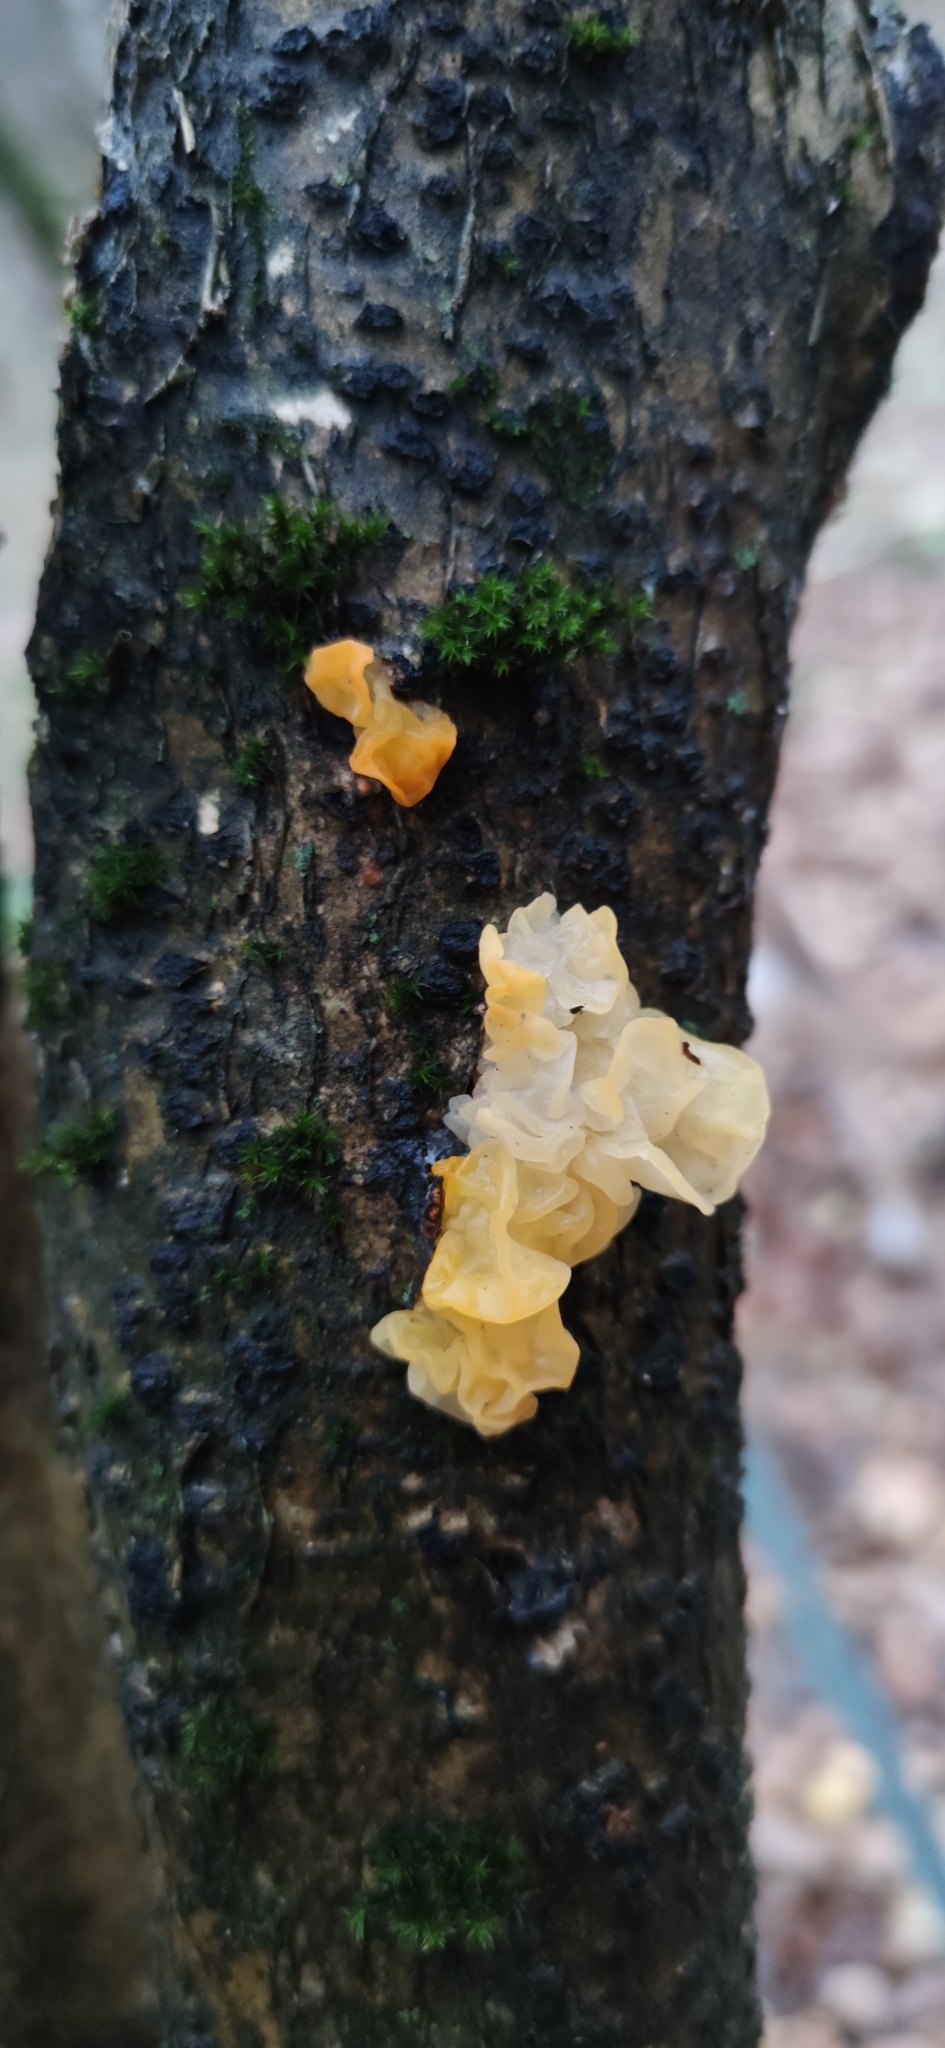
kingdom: Fungi
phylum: Basidiomycota
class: Tremellomycetes
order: Tremellales
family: Tremellaceae
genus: Tremella
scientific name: Tremella mesenterica
